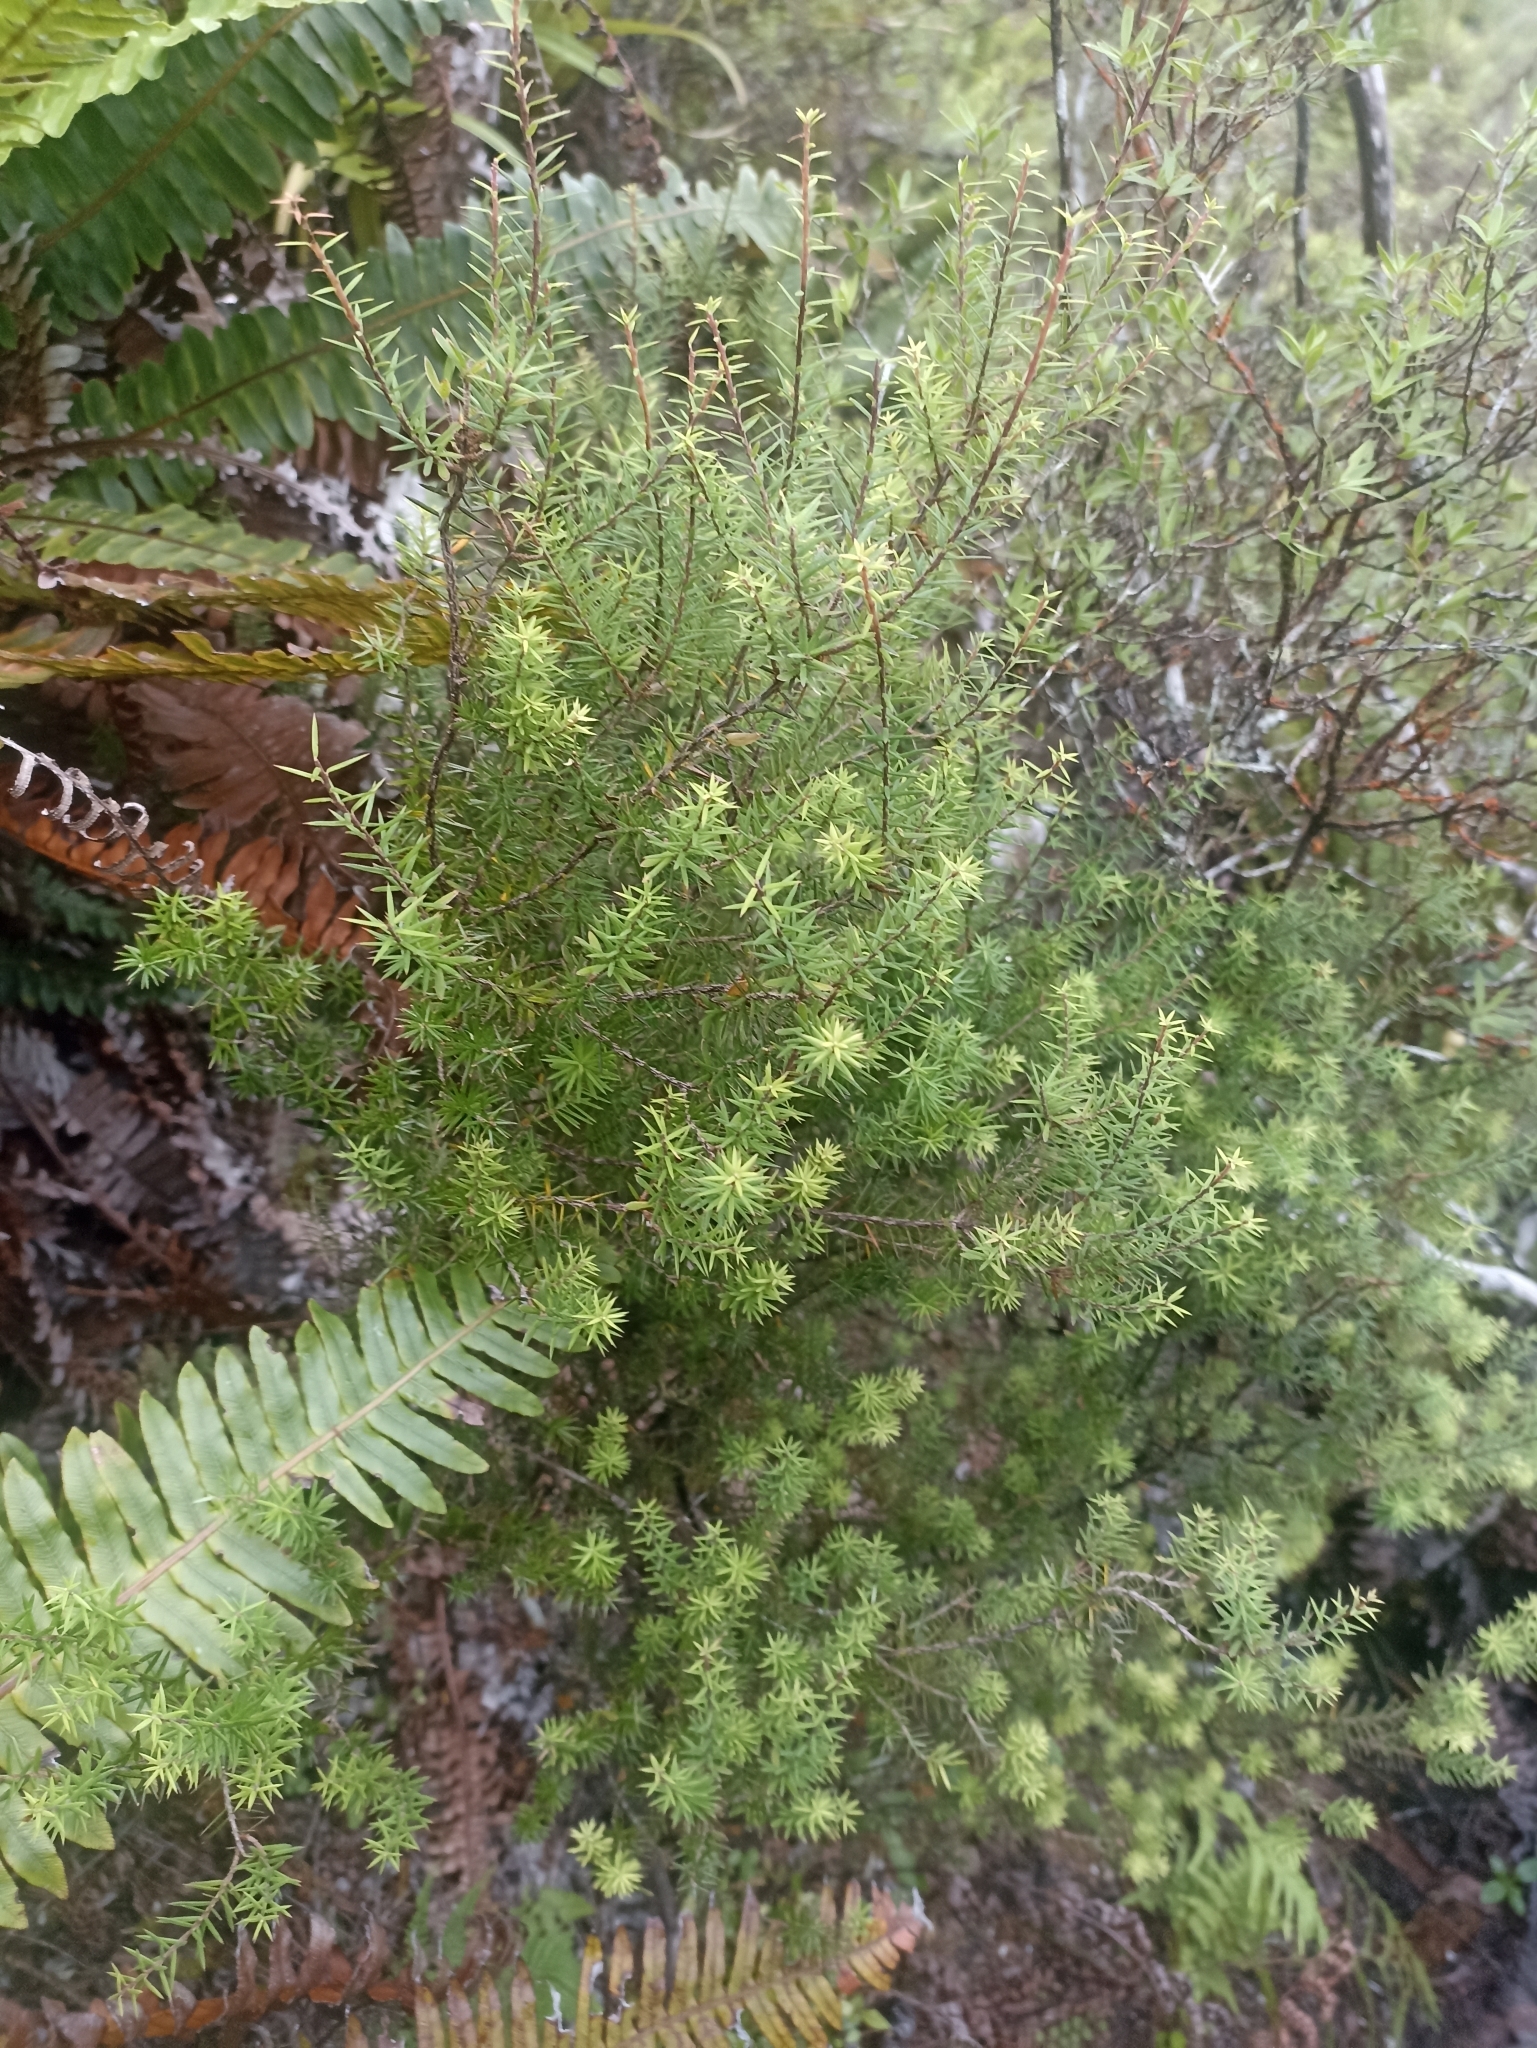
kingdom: Plantae
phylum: Tracheophyta
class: Magnoliopsida
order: Ericales
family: Ericaceae
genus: Leptecophylla
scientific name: Leptecophylla juniperina
